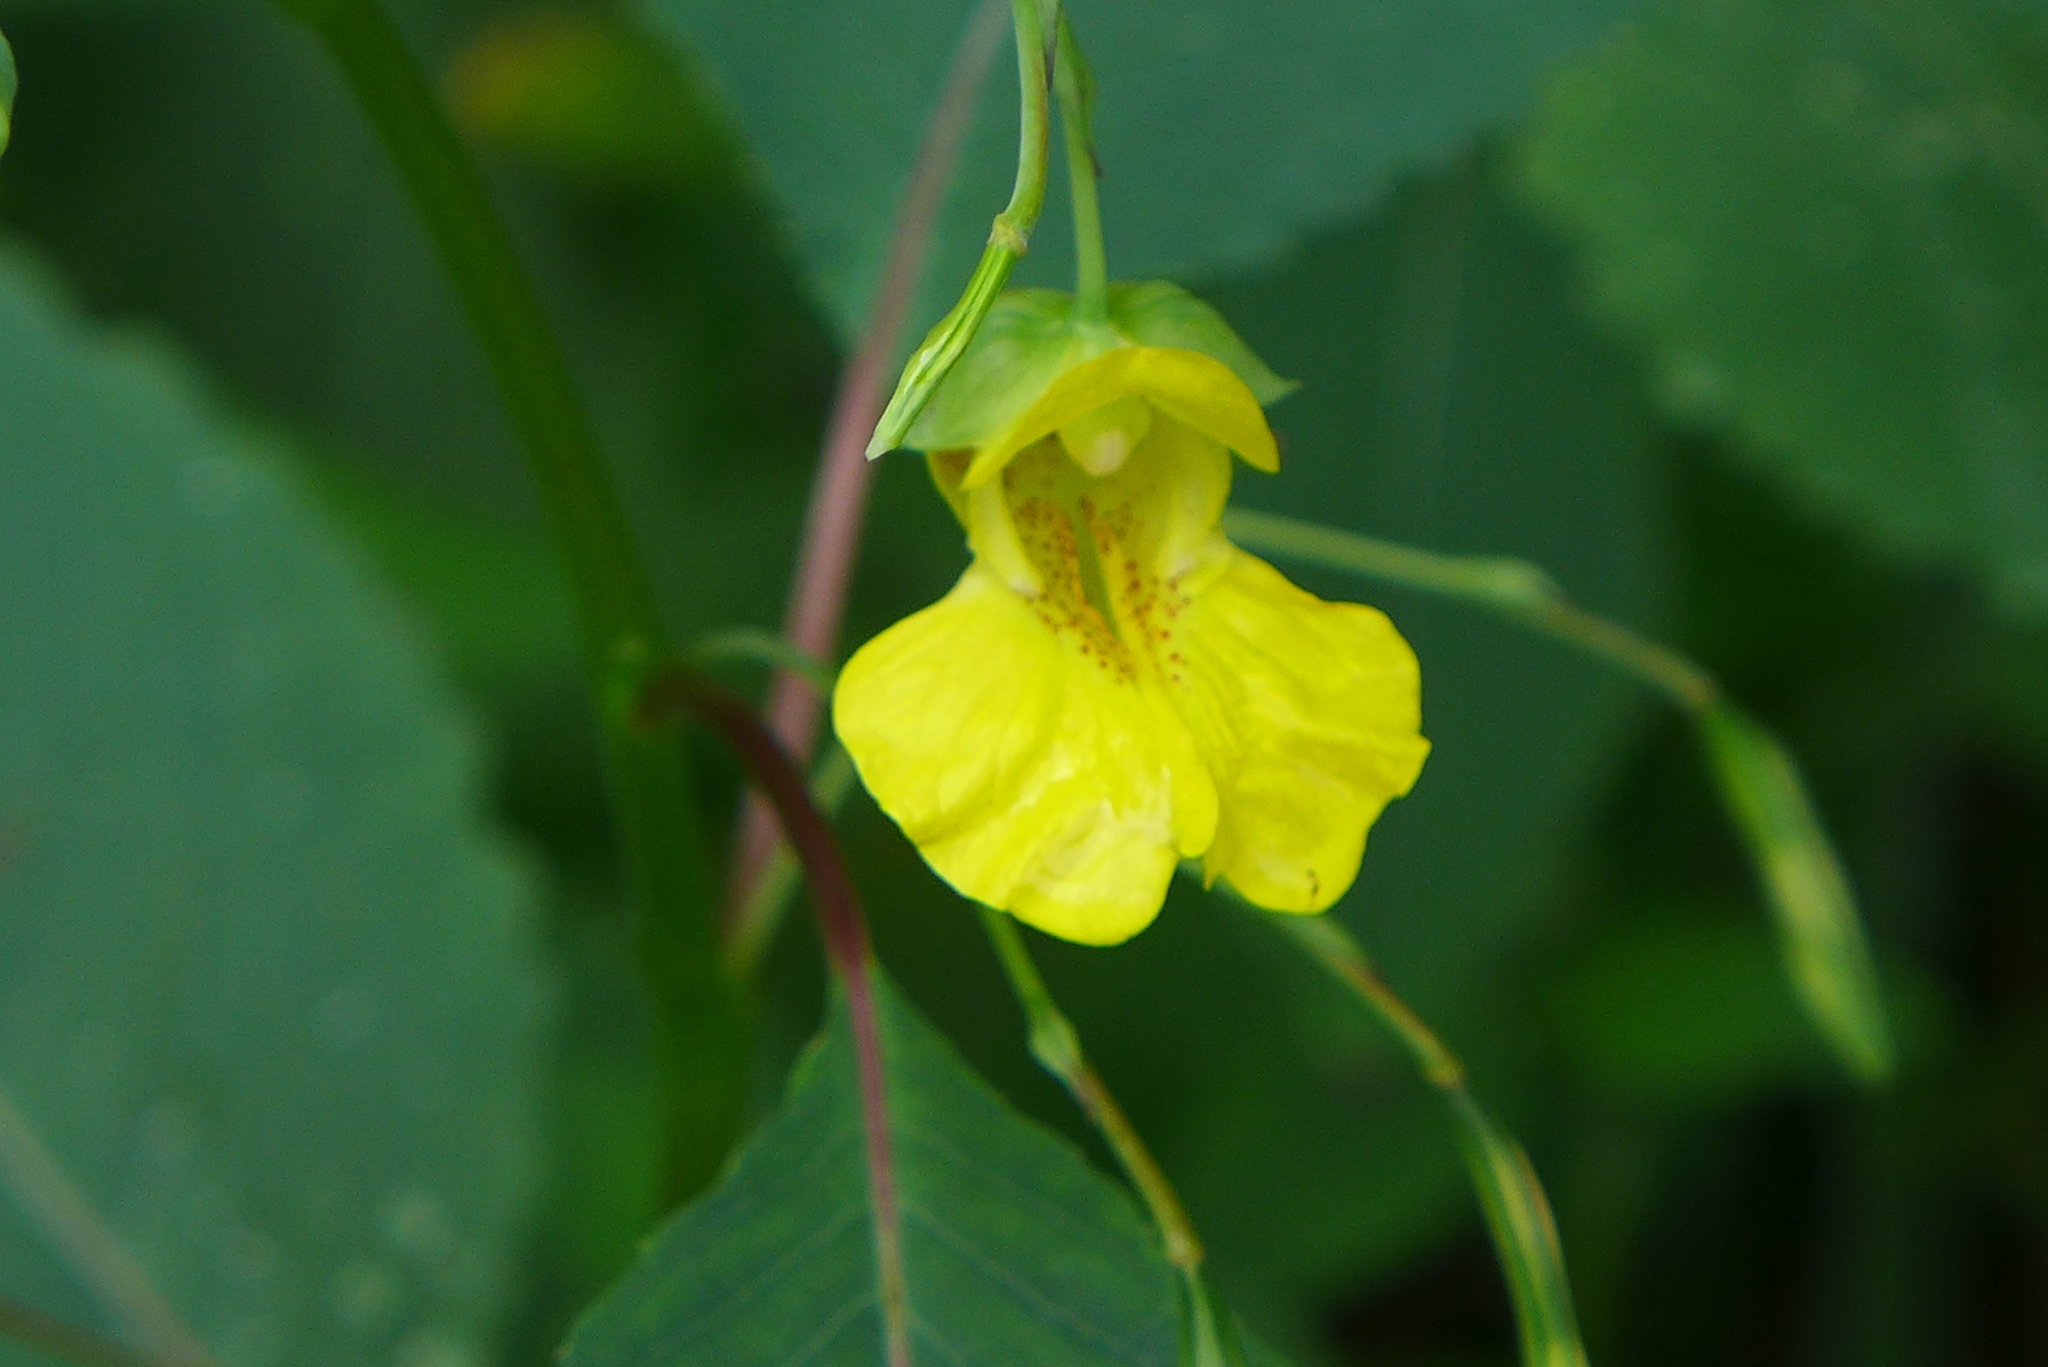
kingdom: Plantae
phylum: Tracheophyta
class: Magnoliopsida
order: Ericales
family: Balsaminaceae
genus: Impatiens
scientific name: Impatiens pallida
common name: Pale snapweed
